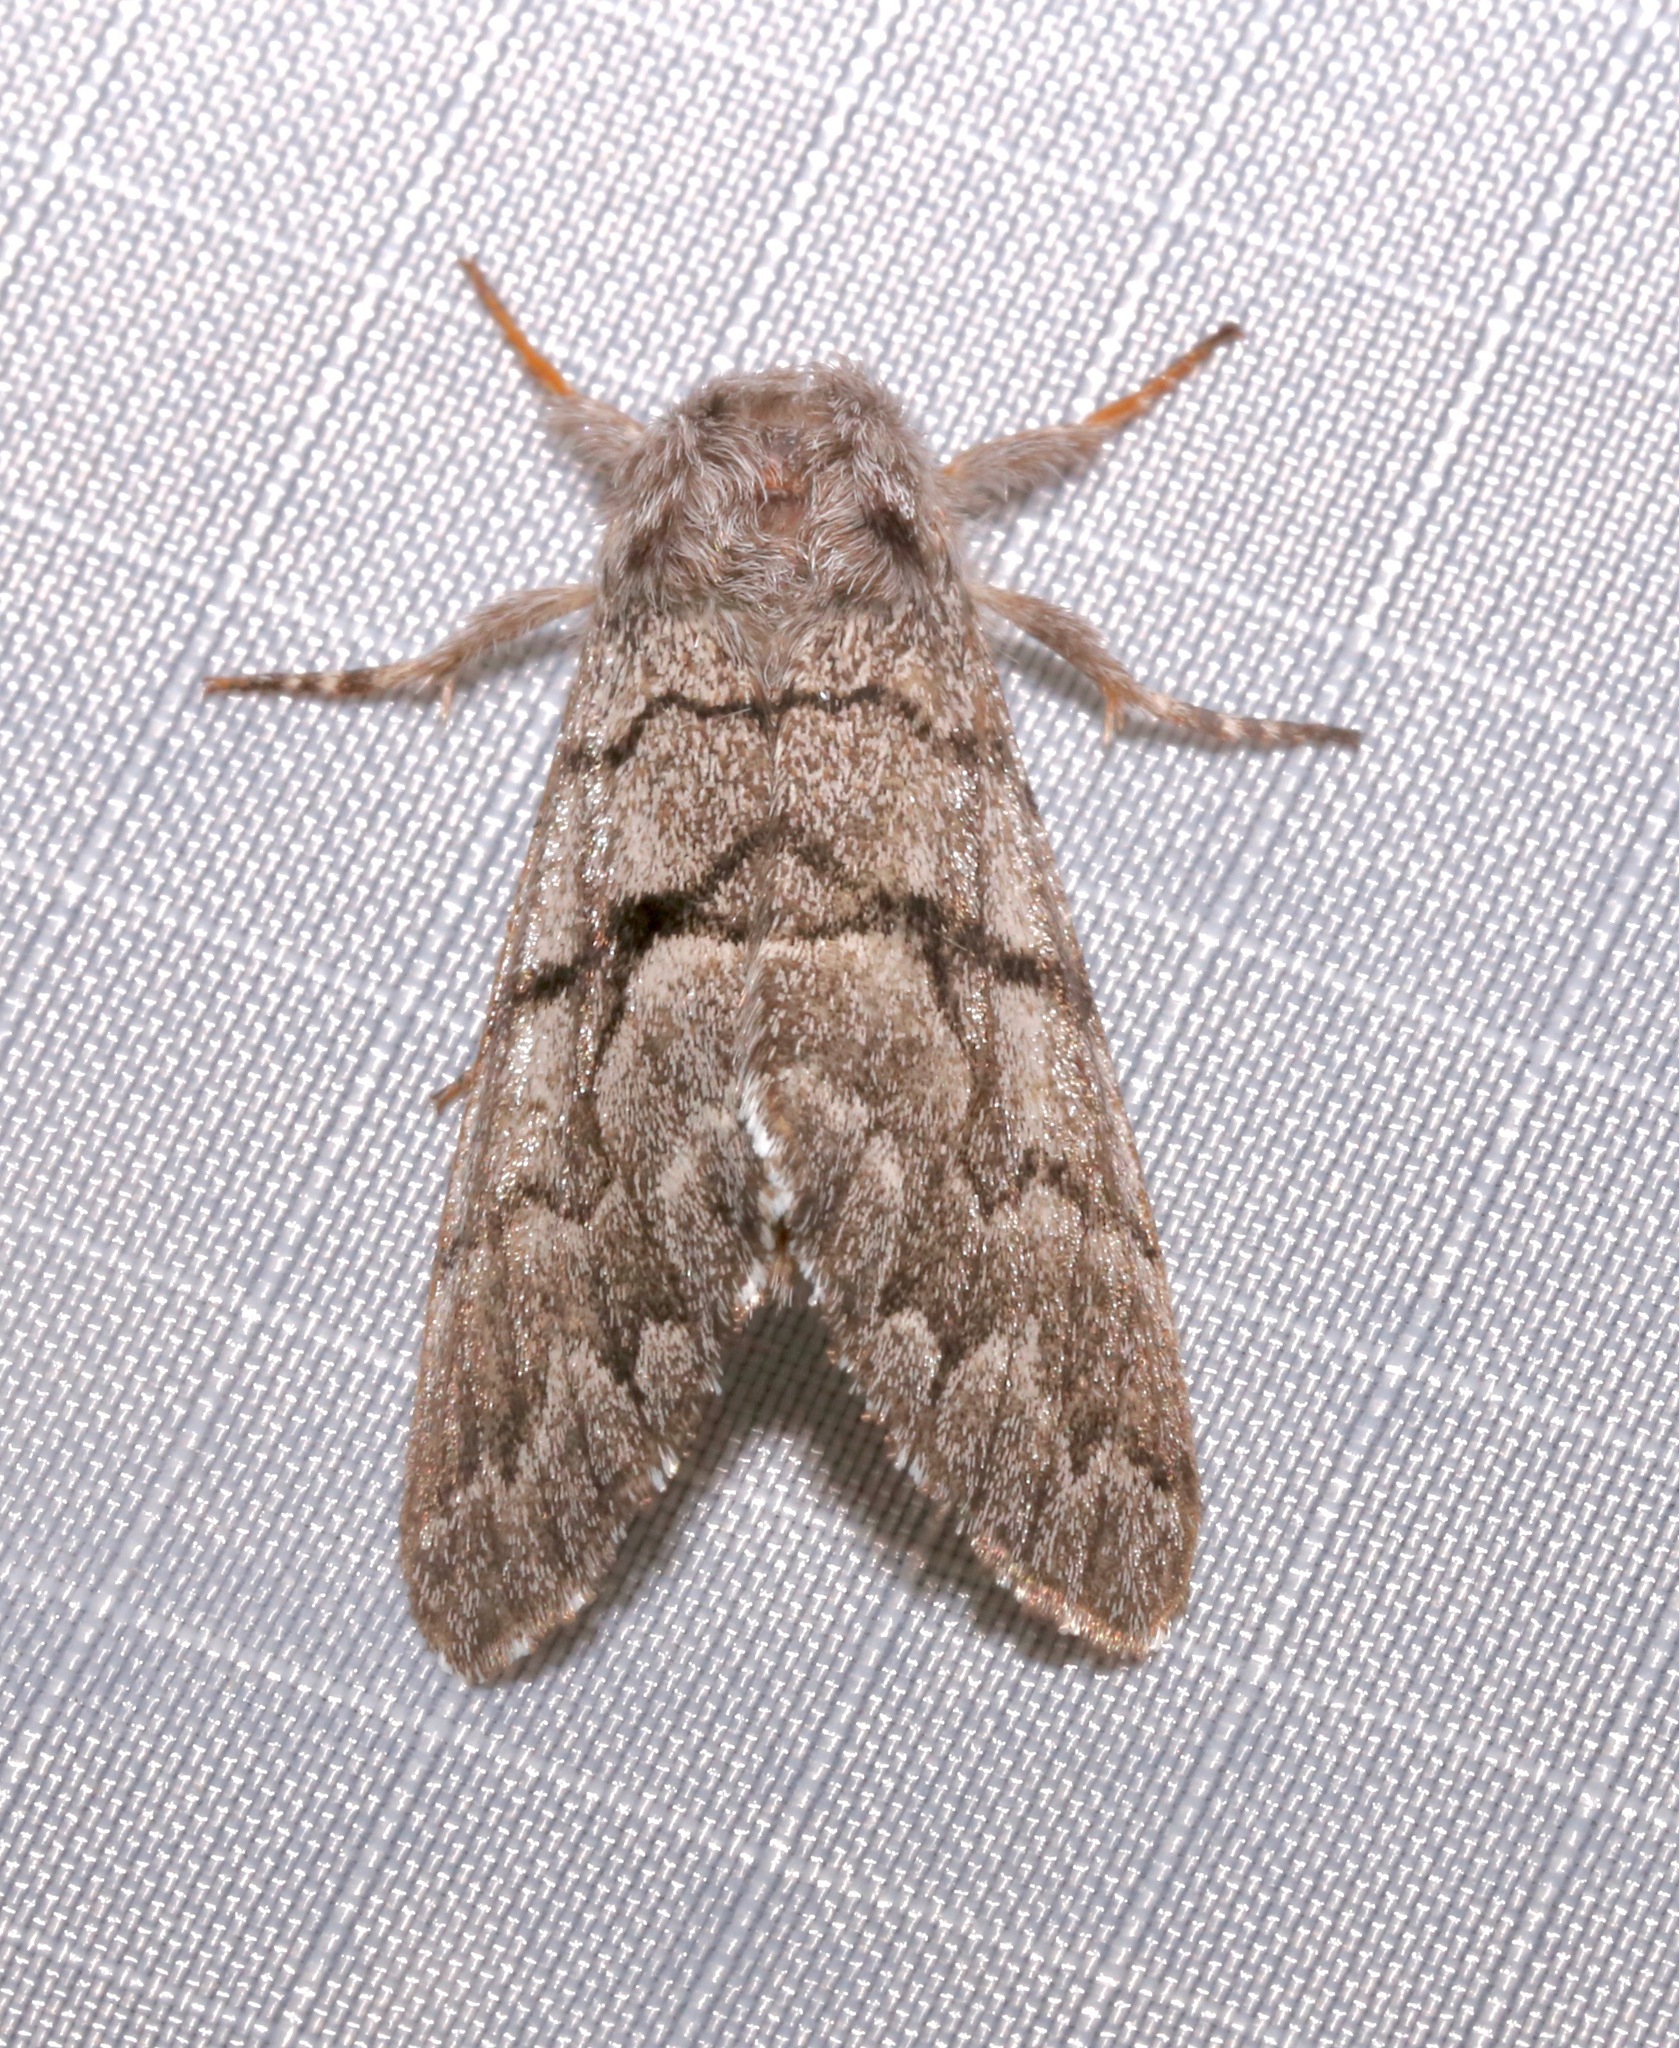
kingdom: Animalia
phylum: Arthropoda
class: Insecta
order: Lepidoptera
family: Noctuidae
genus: Panthea
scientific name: Panthea furcilla
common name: Eastern panthea moth
